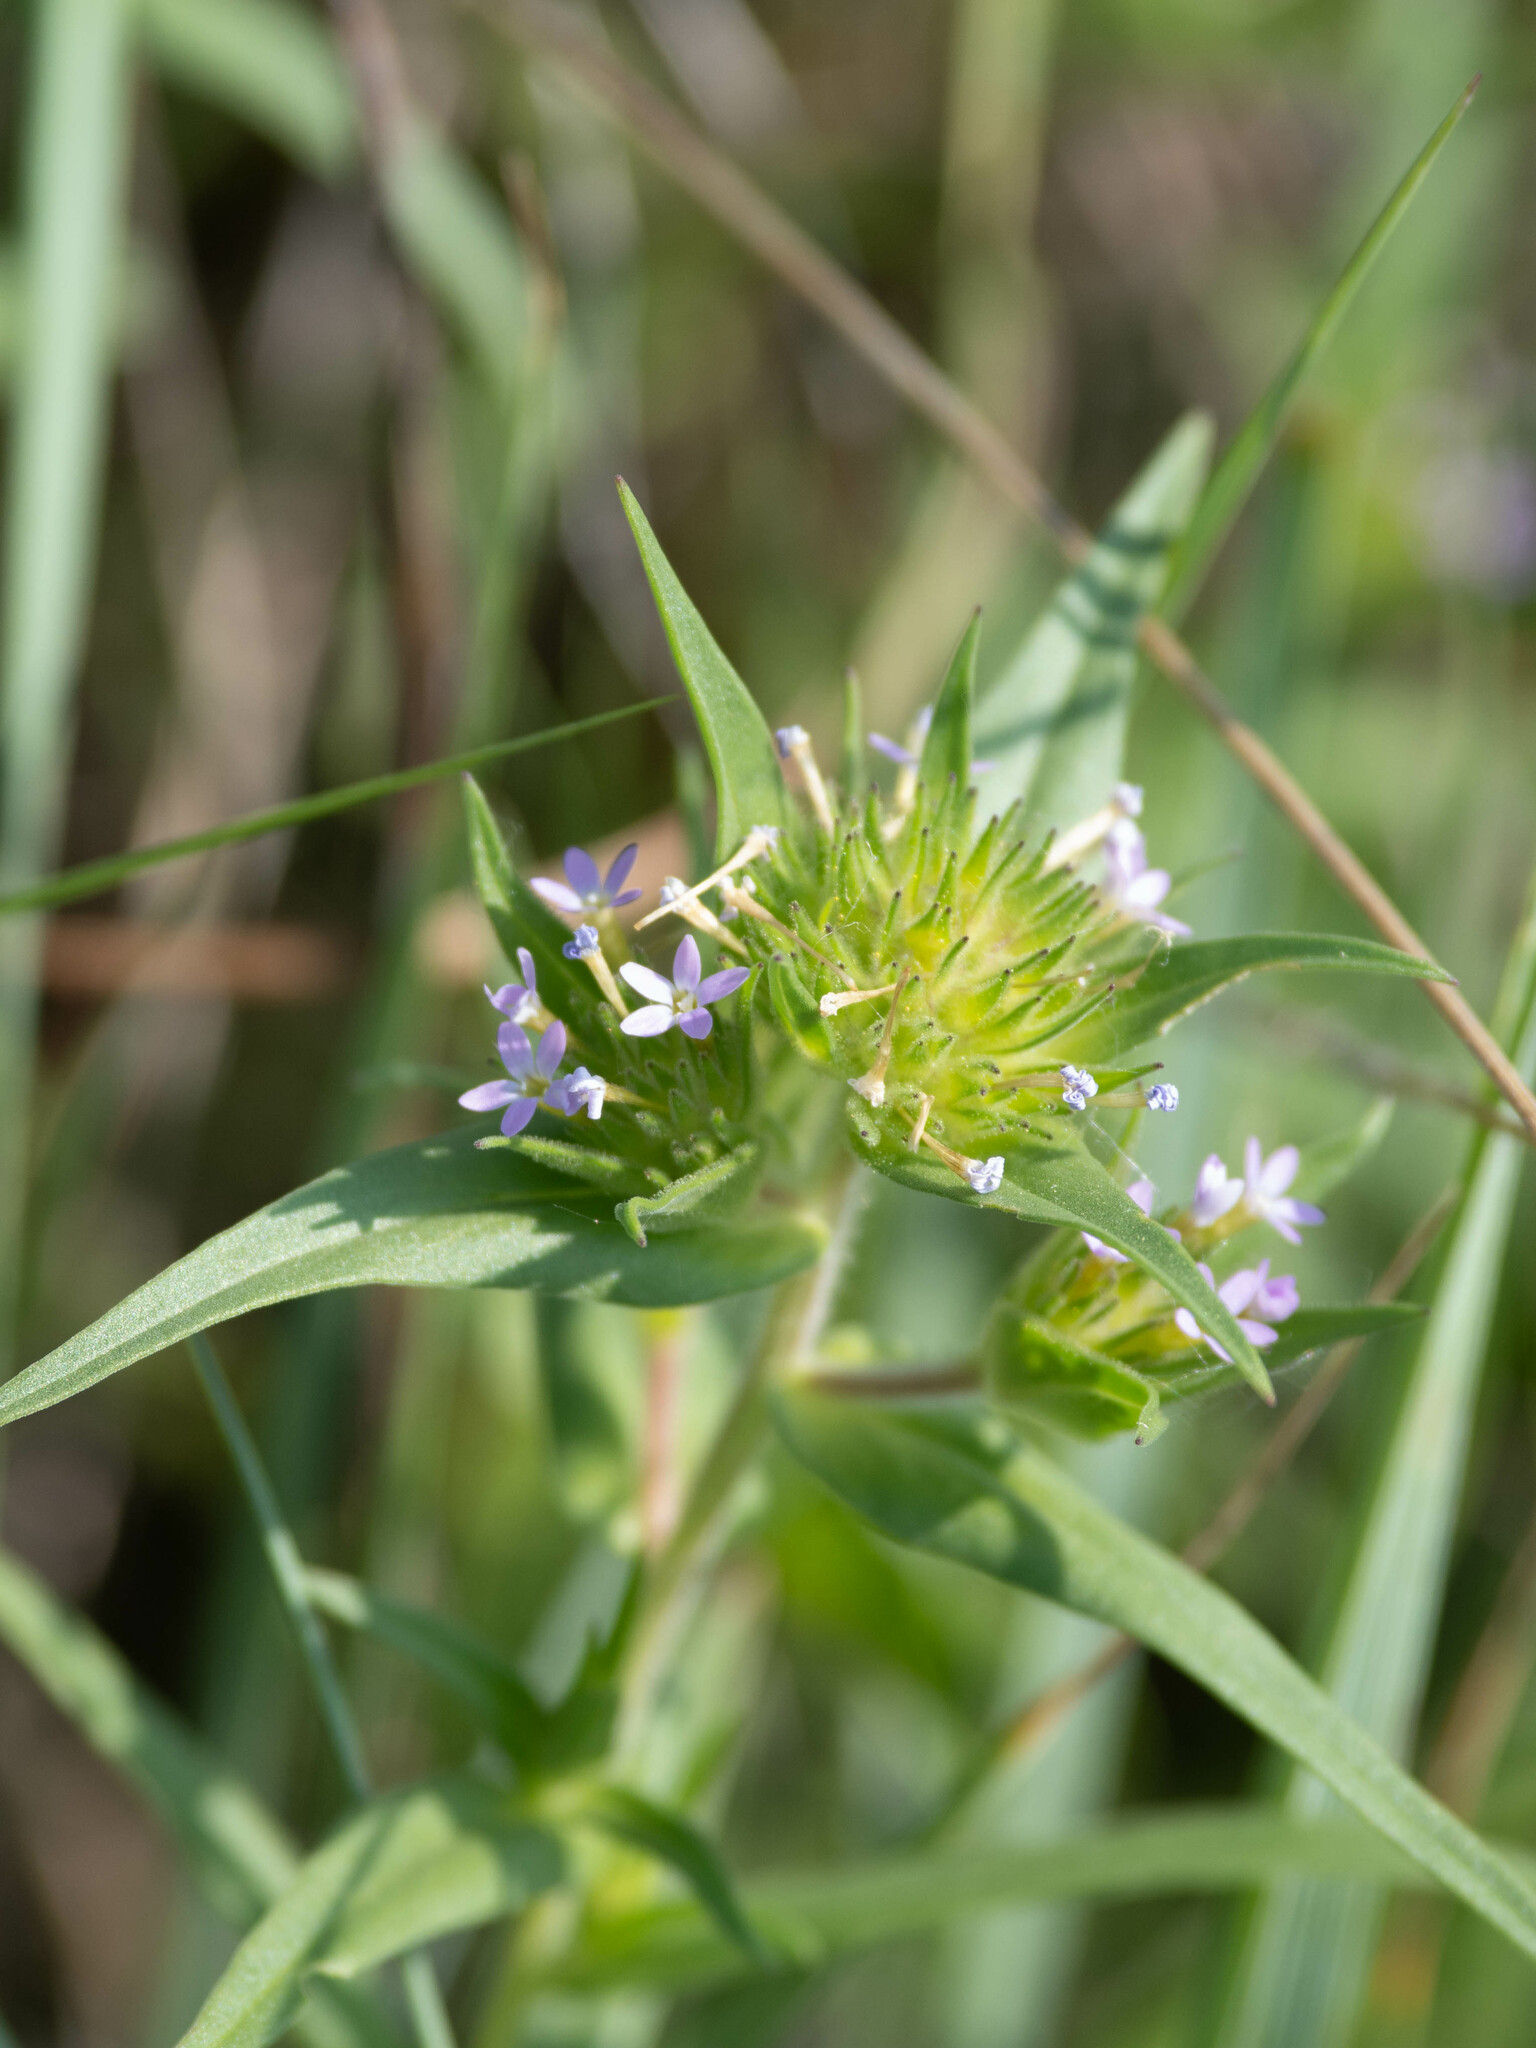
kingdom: Plantae
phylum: Tracheophyta
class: Magnoliopsida
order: Ericales
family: Polemoniaceae
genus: Collomia
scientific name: Collomia linearis
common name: Tiny trumpet
